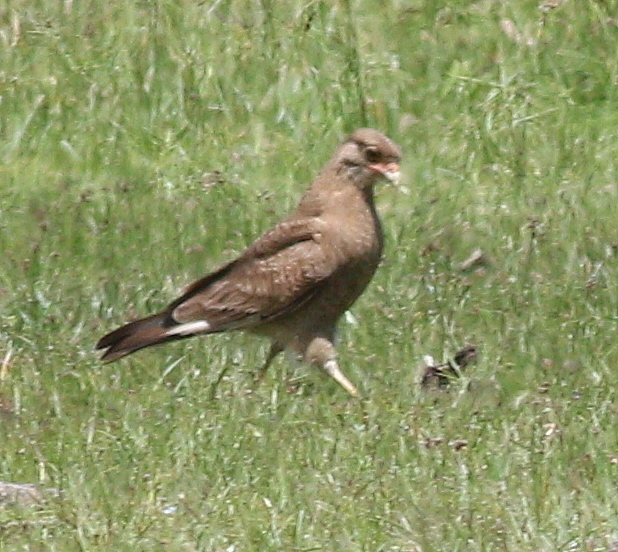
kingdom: Animalia
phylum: Chordata
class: Aves
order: Falconiformes
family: Falconidae
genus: Daptrius
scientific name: Daptrius
